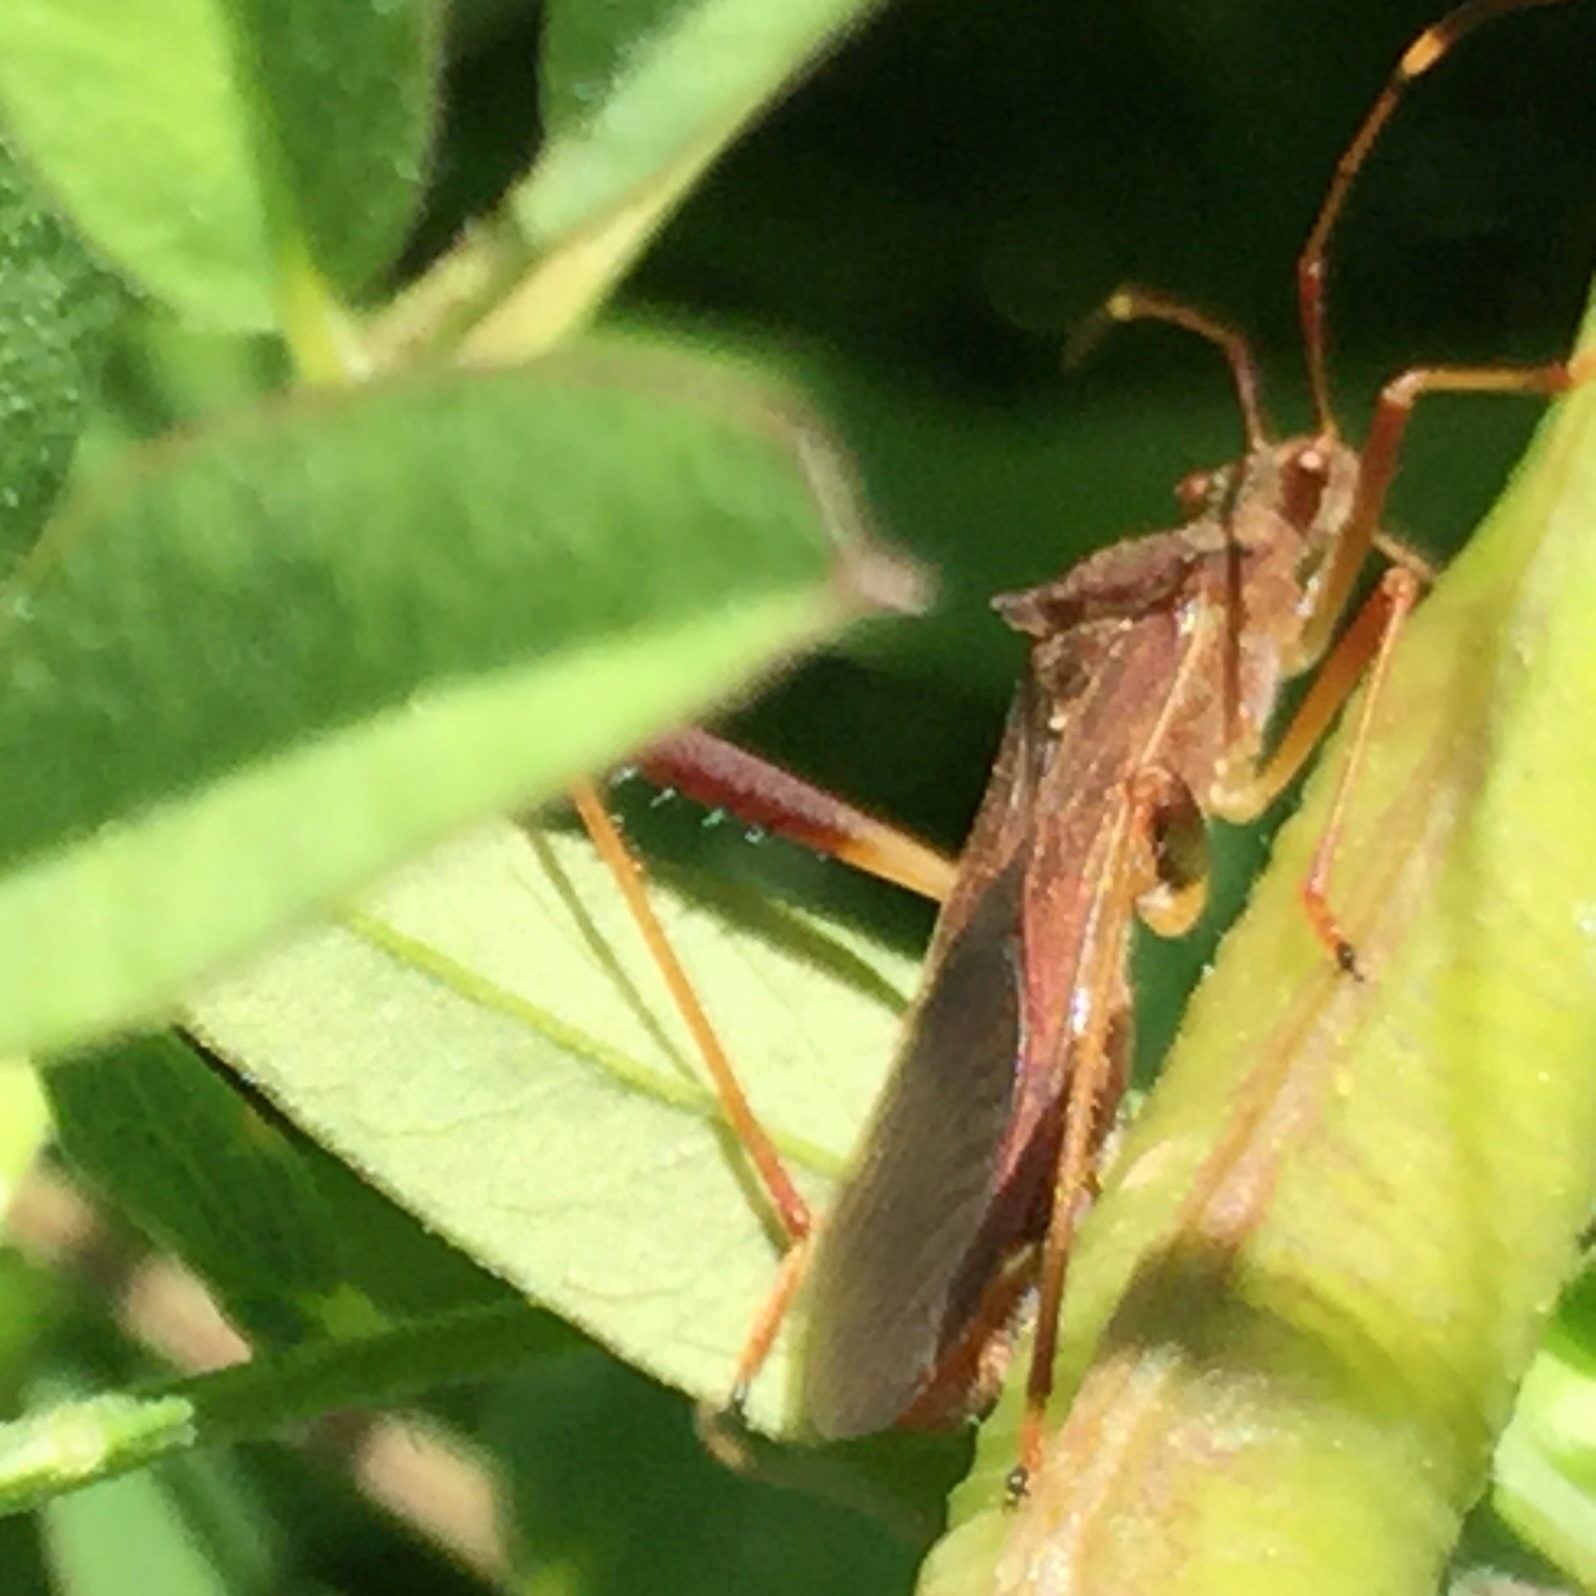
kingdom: Animalia
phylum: Arthropoda
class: Insecta
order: Hemiptera
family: Alydidae
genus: Megalotomus
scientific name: Megalotomus quinquespinosus
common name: Lupine bug
